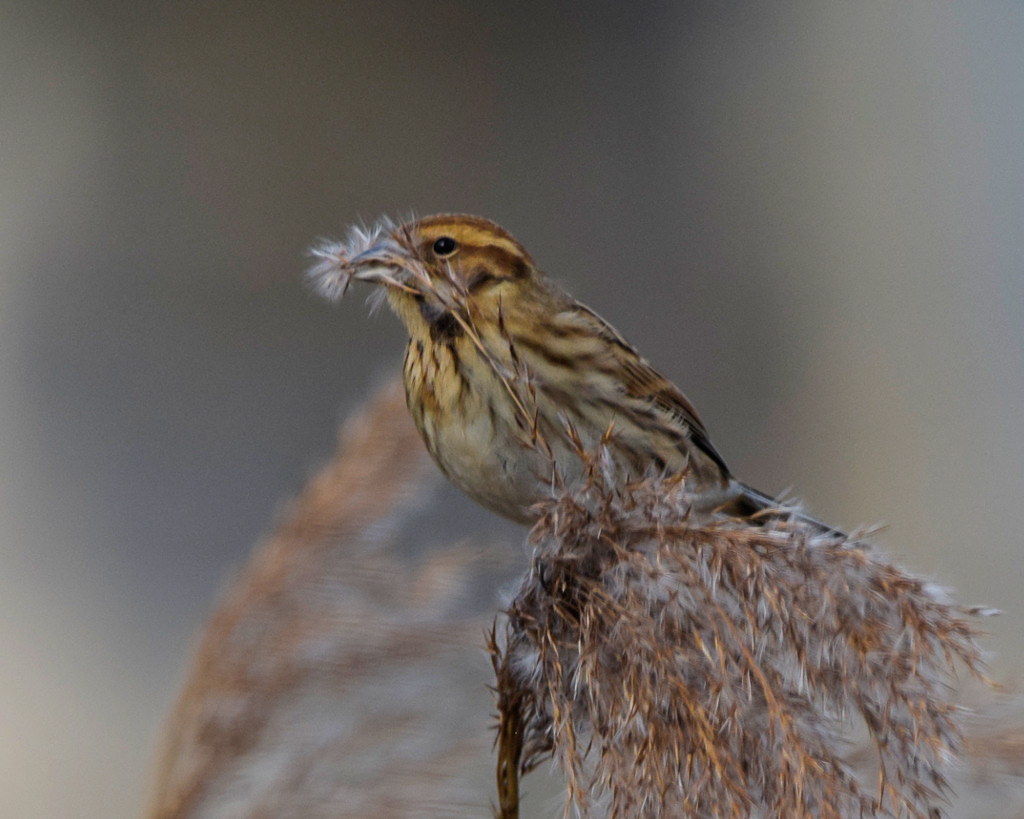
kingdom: Animalia
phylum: Chordata
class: Aves
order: Passeriformes
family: Emberizidae
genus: Emberiza
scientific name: Emberiza schoeniclus
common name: Reed bunting
